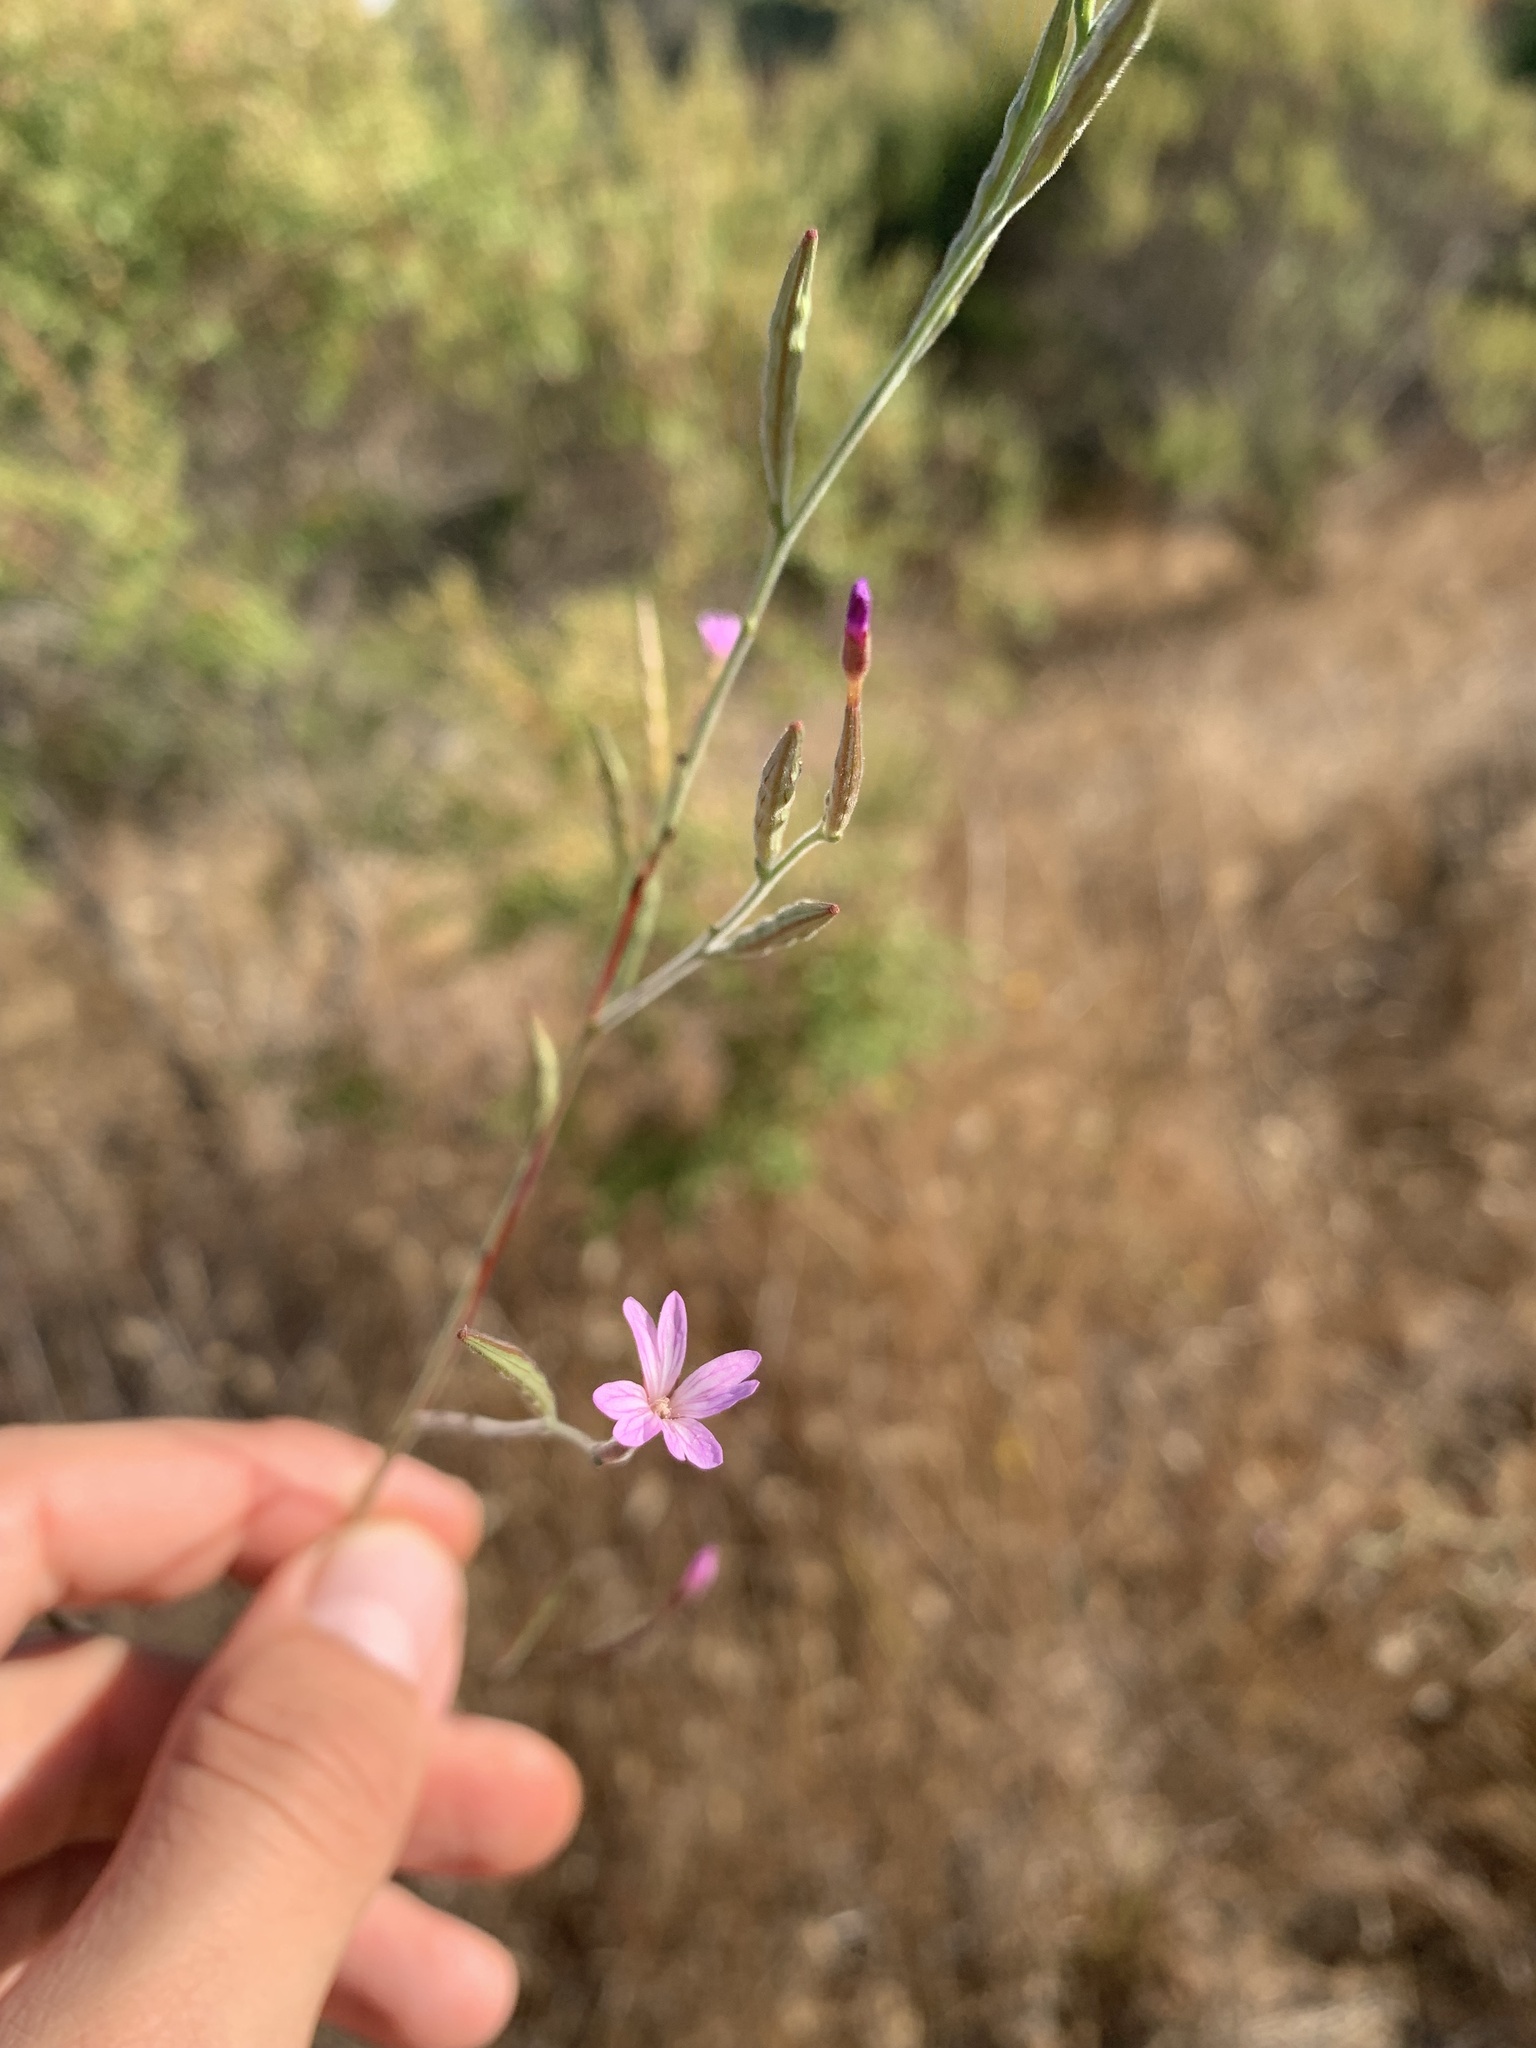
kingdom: Plantae
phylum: Tracheophyta
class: Magnoliopsida
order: Myrtales
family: Onagraceae
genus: Epilobium
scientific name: Epilobium brachycarpum
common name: Annual willowherb
